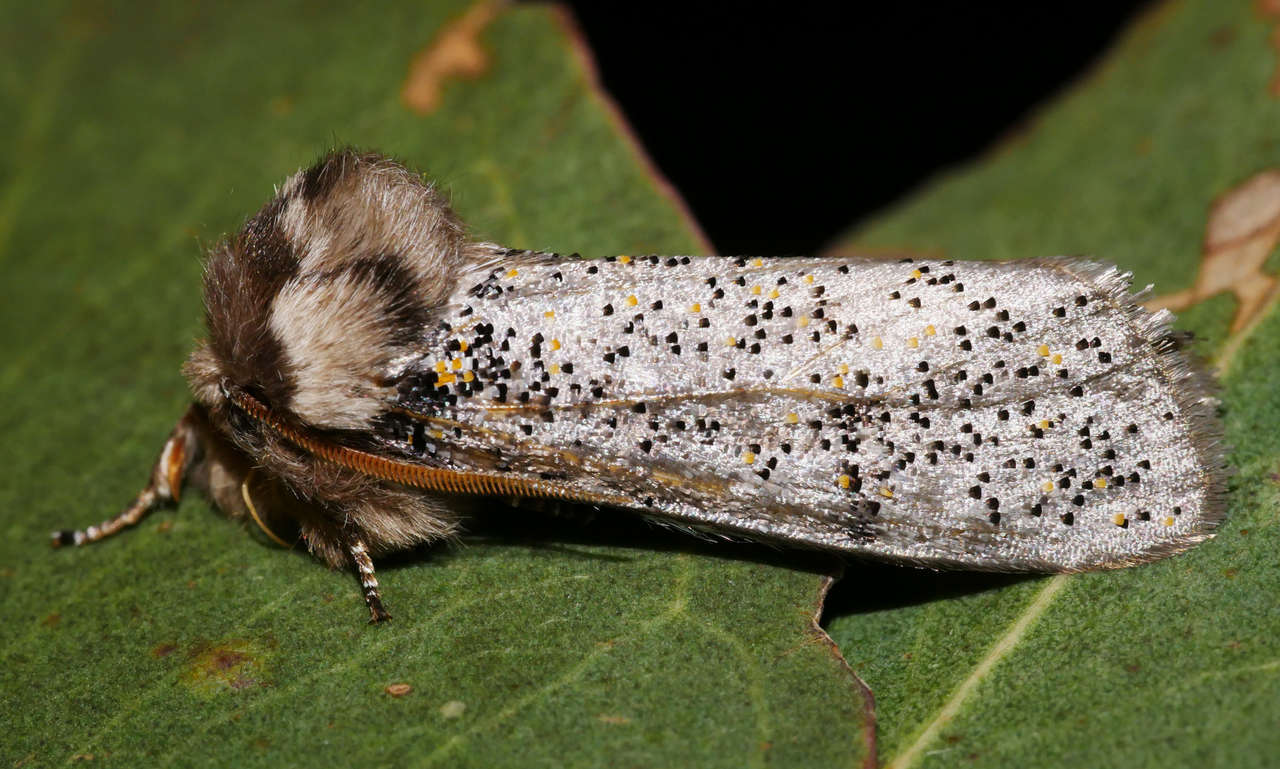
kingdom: Animalia
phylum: Arthropoda
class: Insecta
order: Lepidoptera
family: Oenosandridae
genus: Oenosandra
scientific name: Oenosandra boisduvalii
